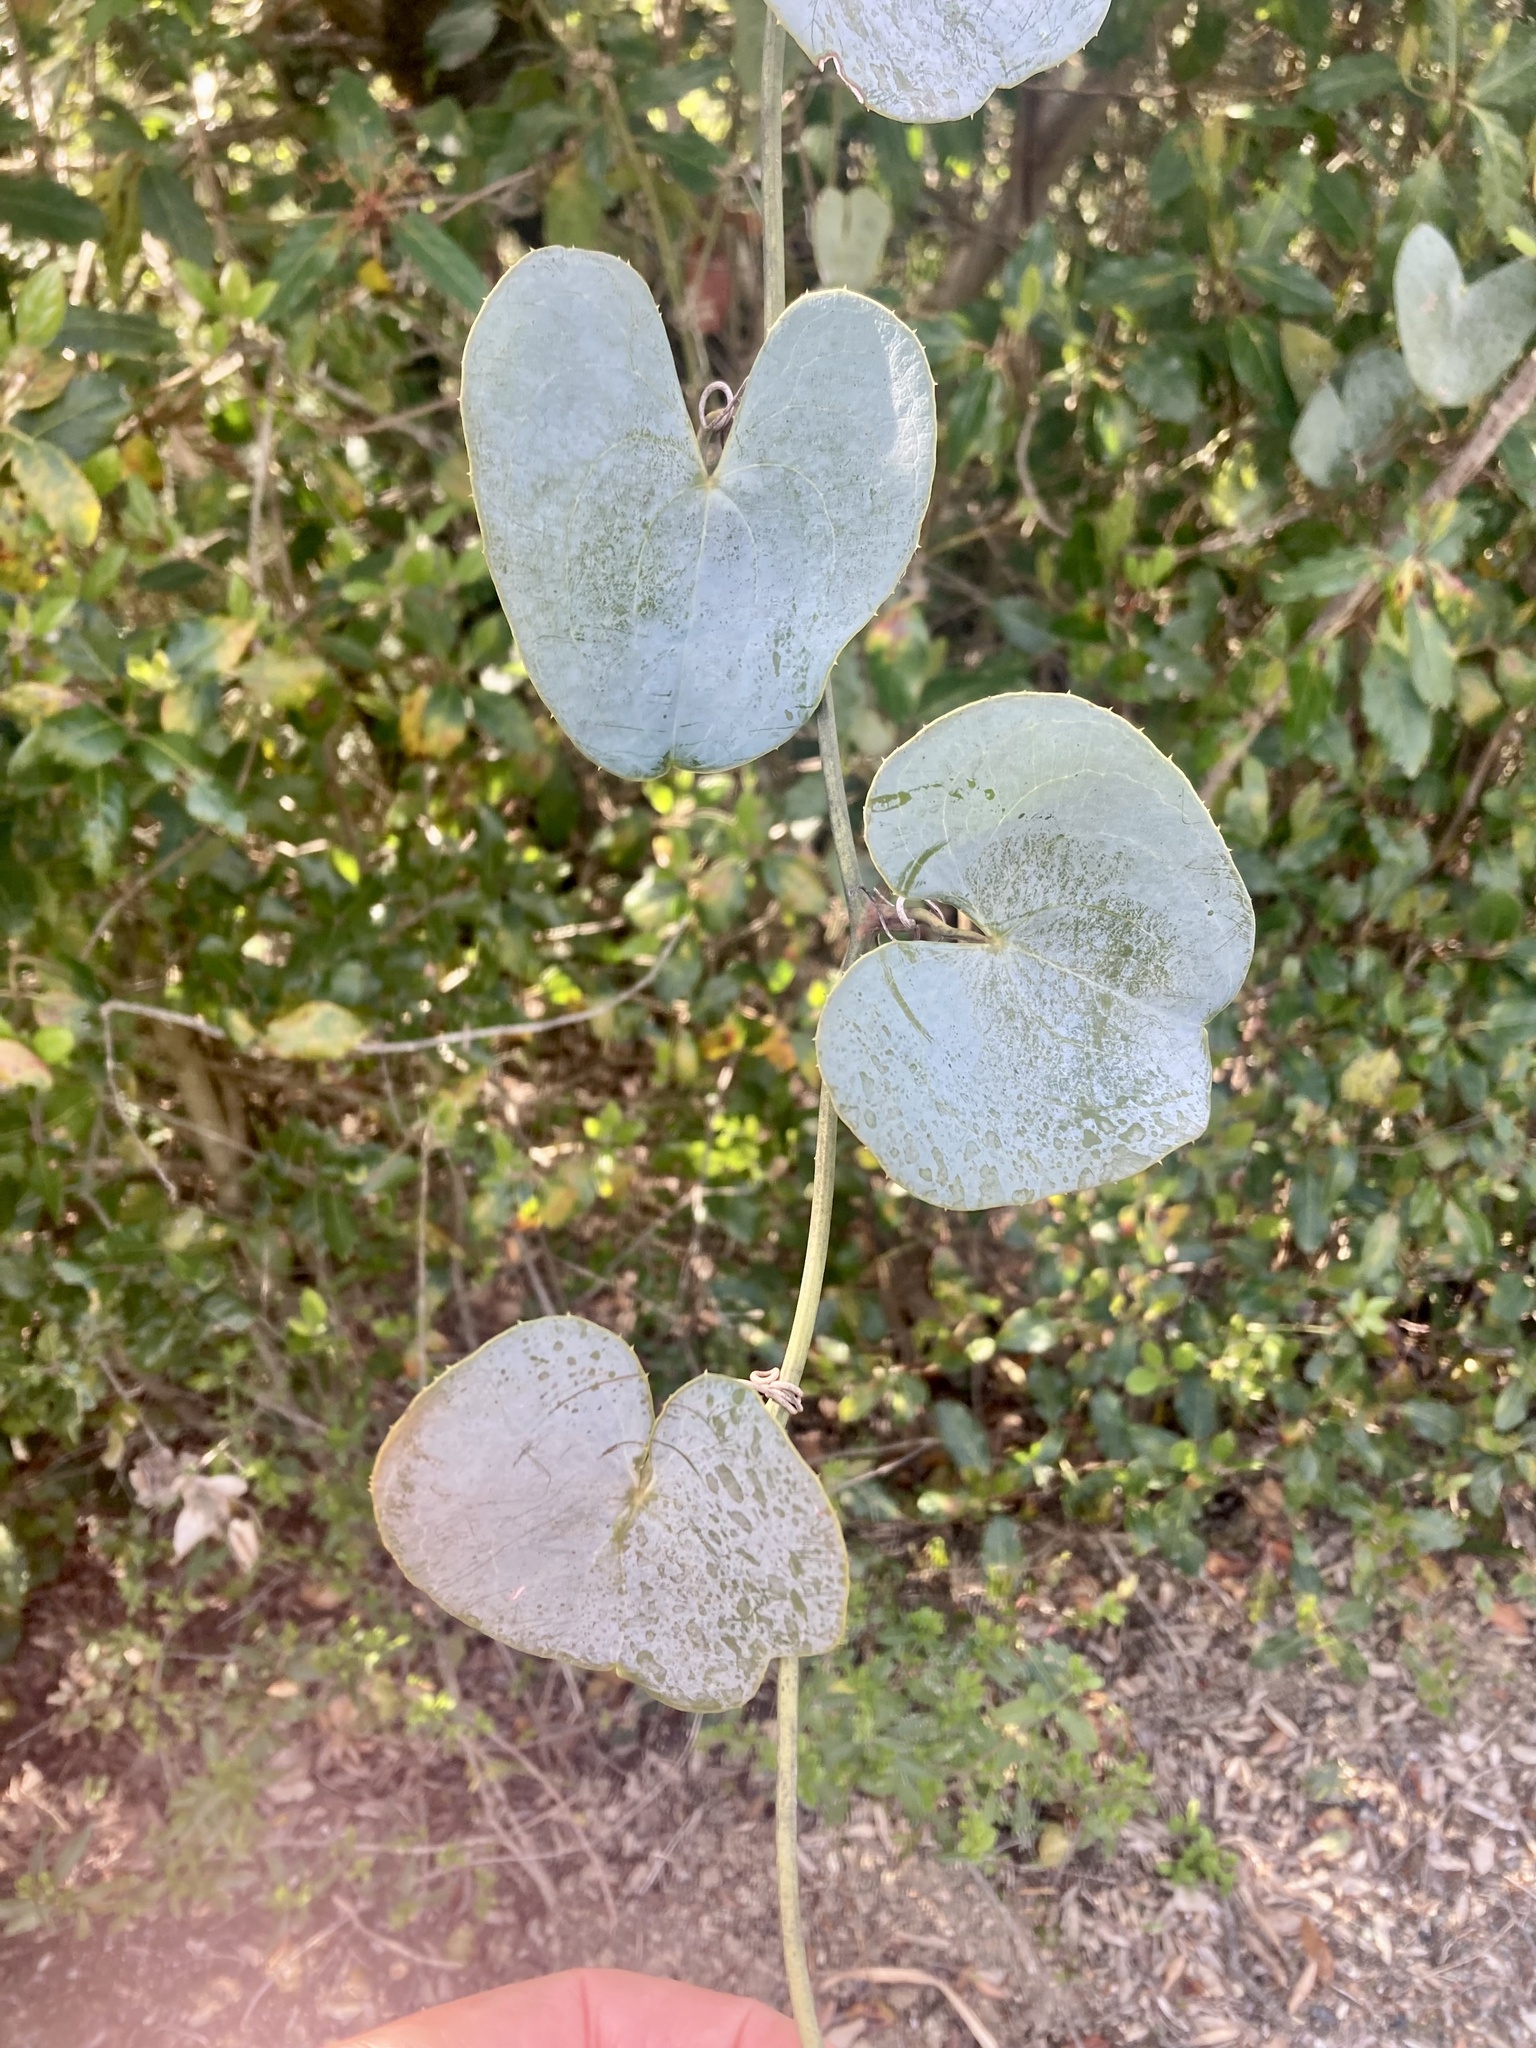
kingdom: Plantae
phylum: Tracheophyta
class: Liliopsida
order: Liliales
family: Smilacaceae
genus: Smilax
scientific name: Smilax aspera
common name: Common smilax
